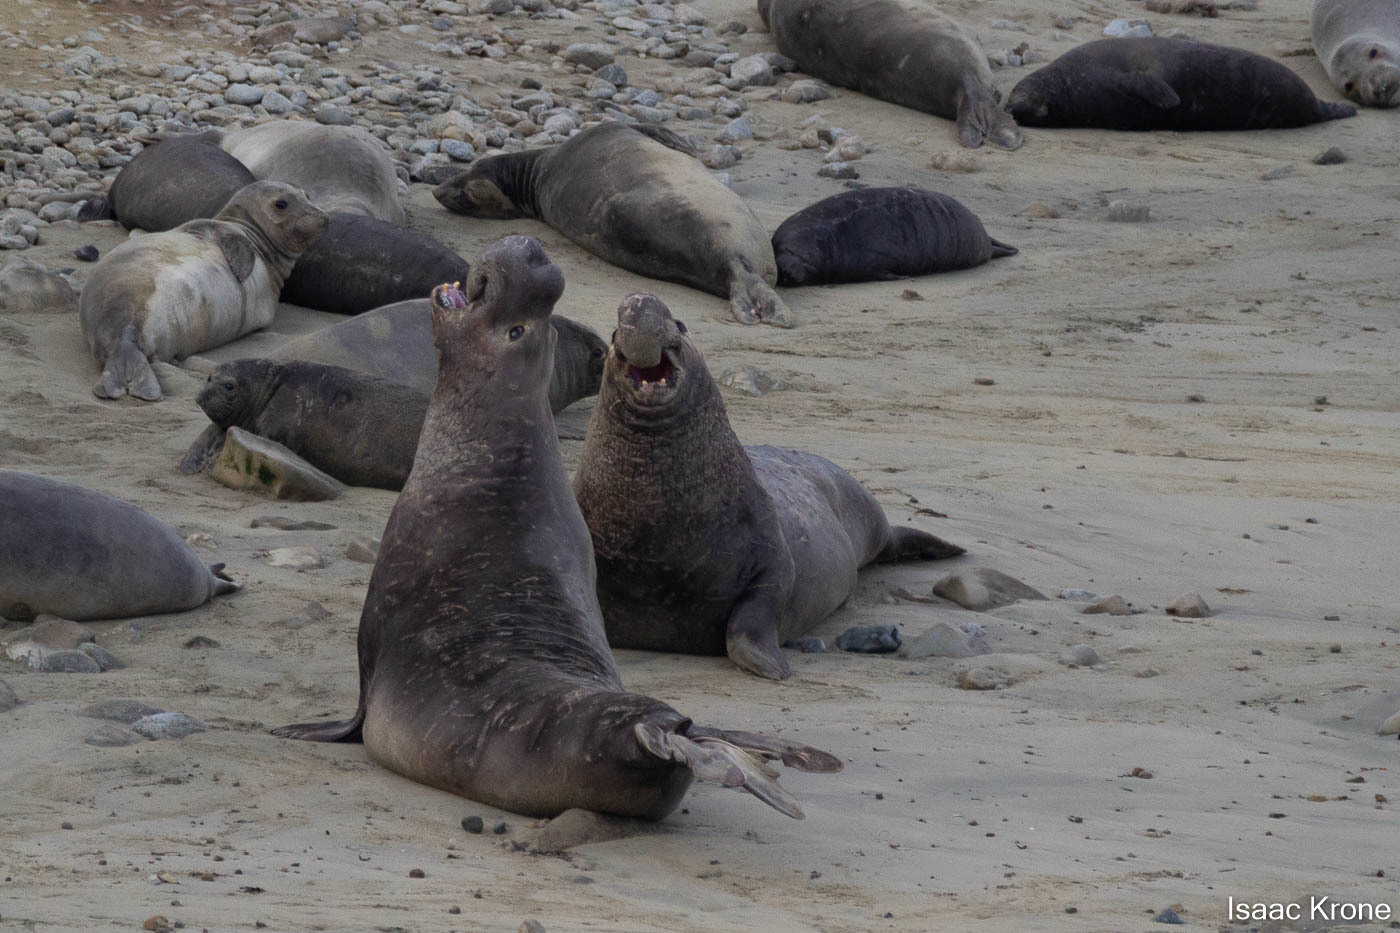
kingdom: Animalia
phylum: Chordata
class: Mammalia
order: Carnivora
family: Phocidae
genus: Mirounga
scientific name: Mirounga angustirostris
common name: Northern elephant seal
